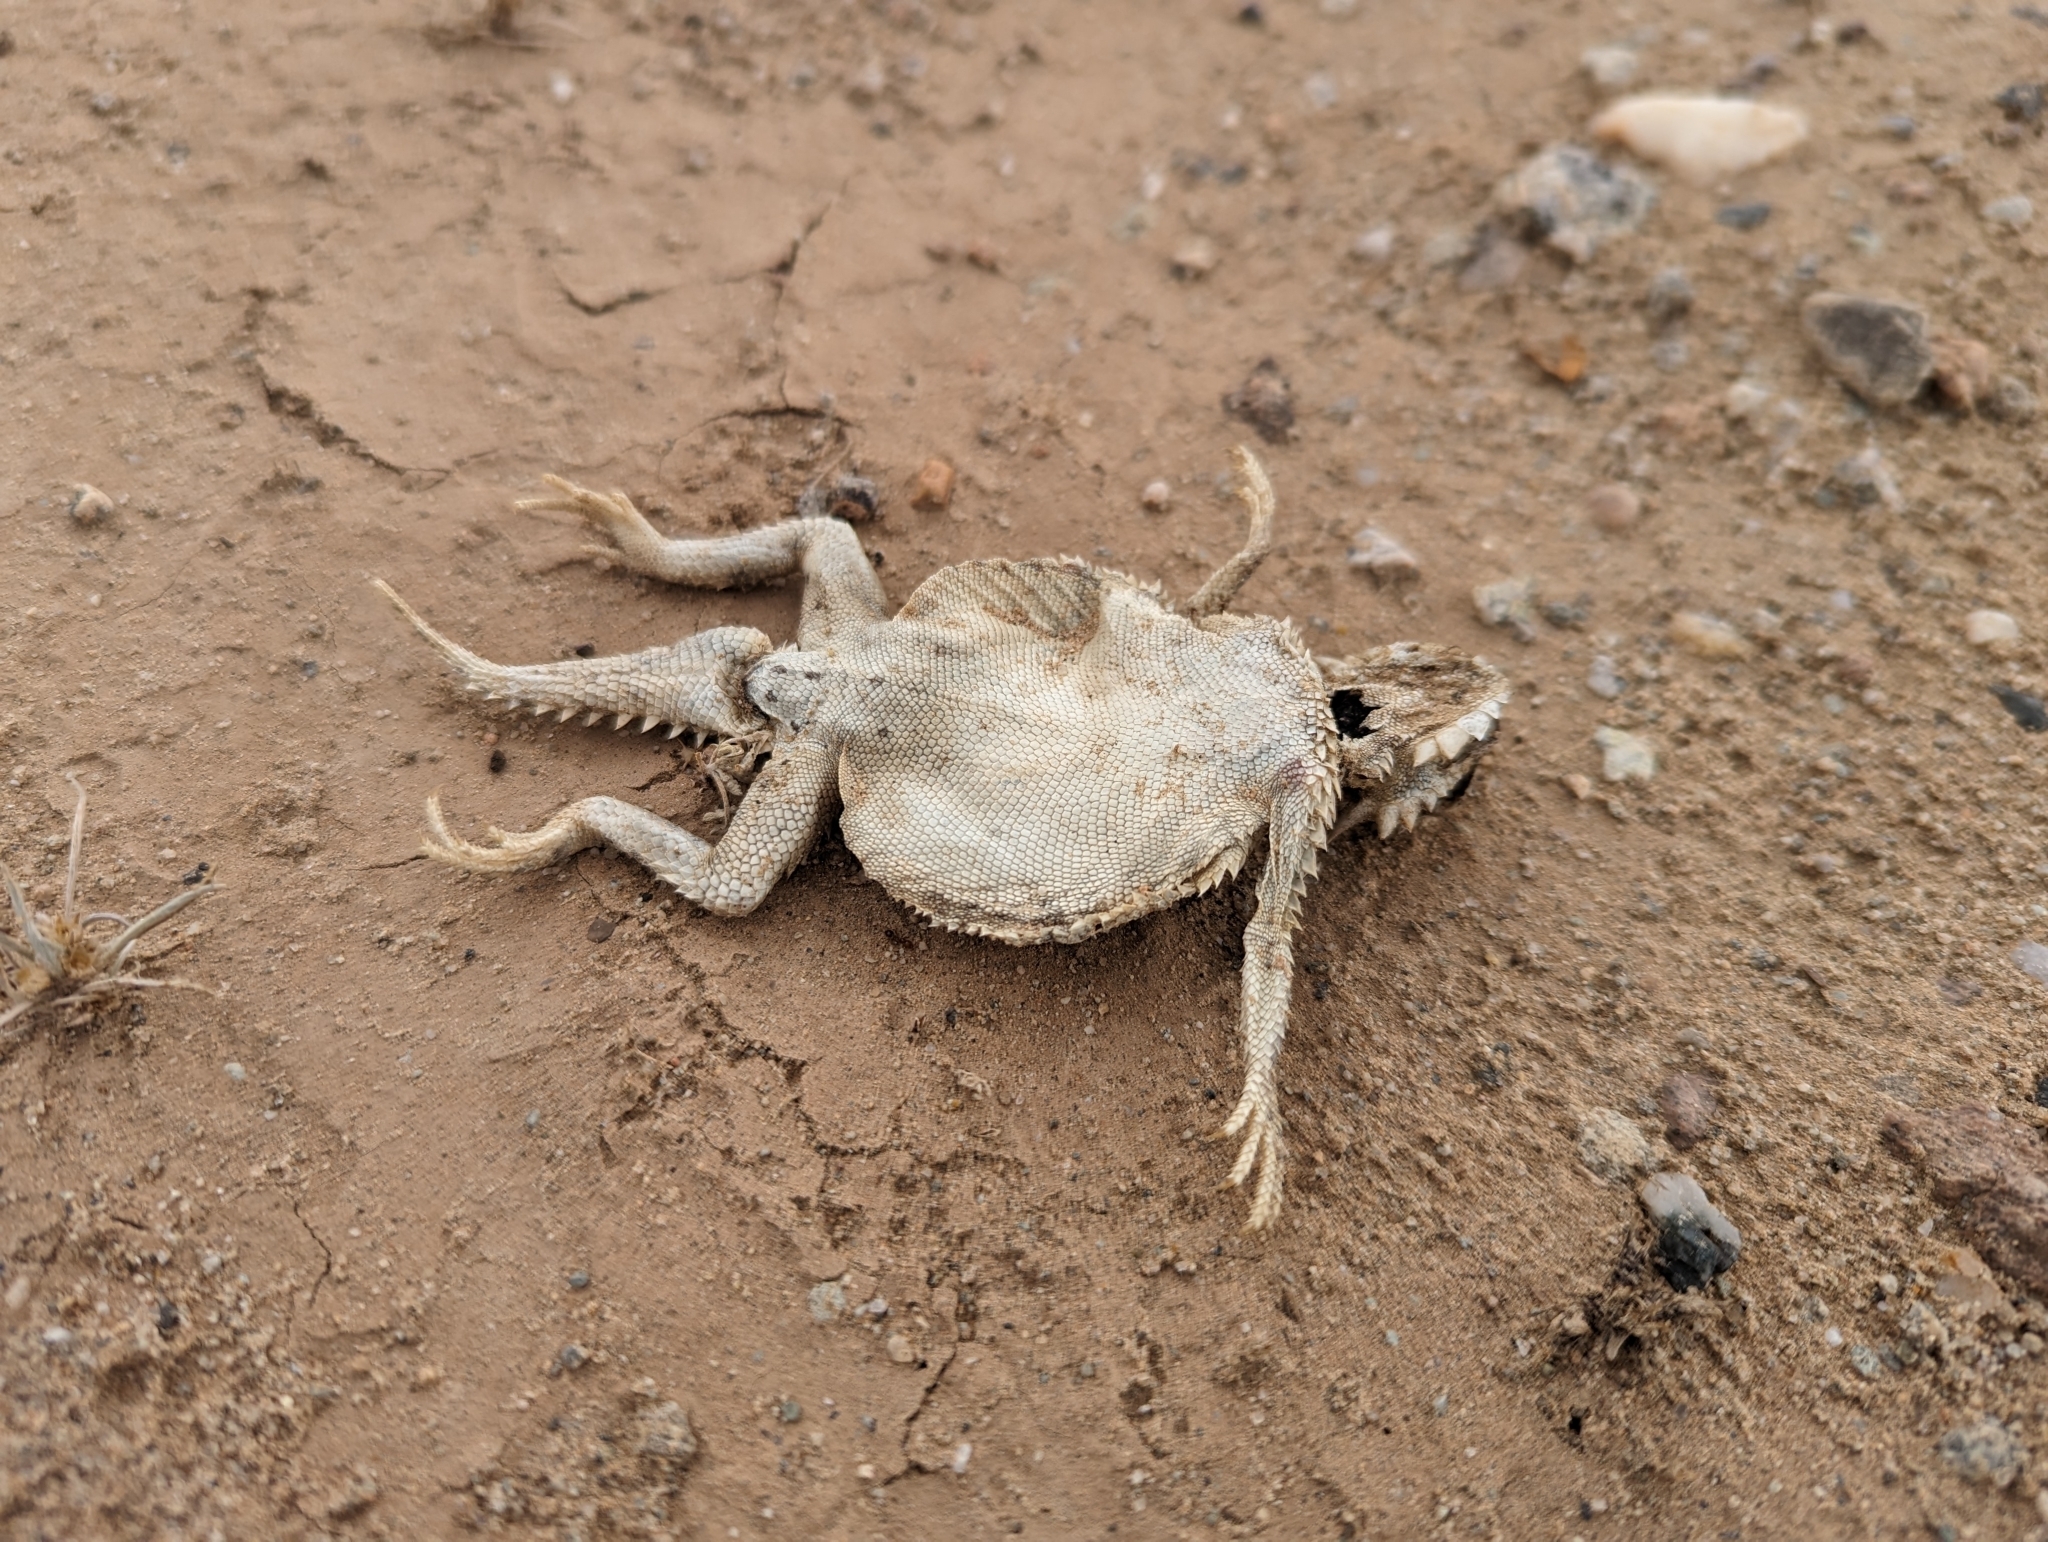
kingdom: Animalia
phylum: Chordata
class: Squamata
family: Phrynosomatidae
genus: Phrynosoma
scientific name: Phrynosoma platyrhinos
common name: Desert horned lizard
